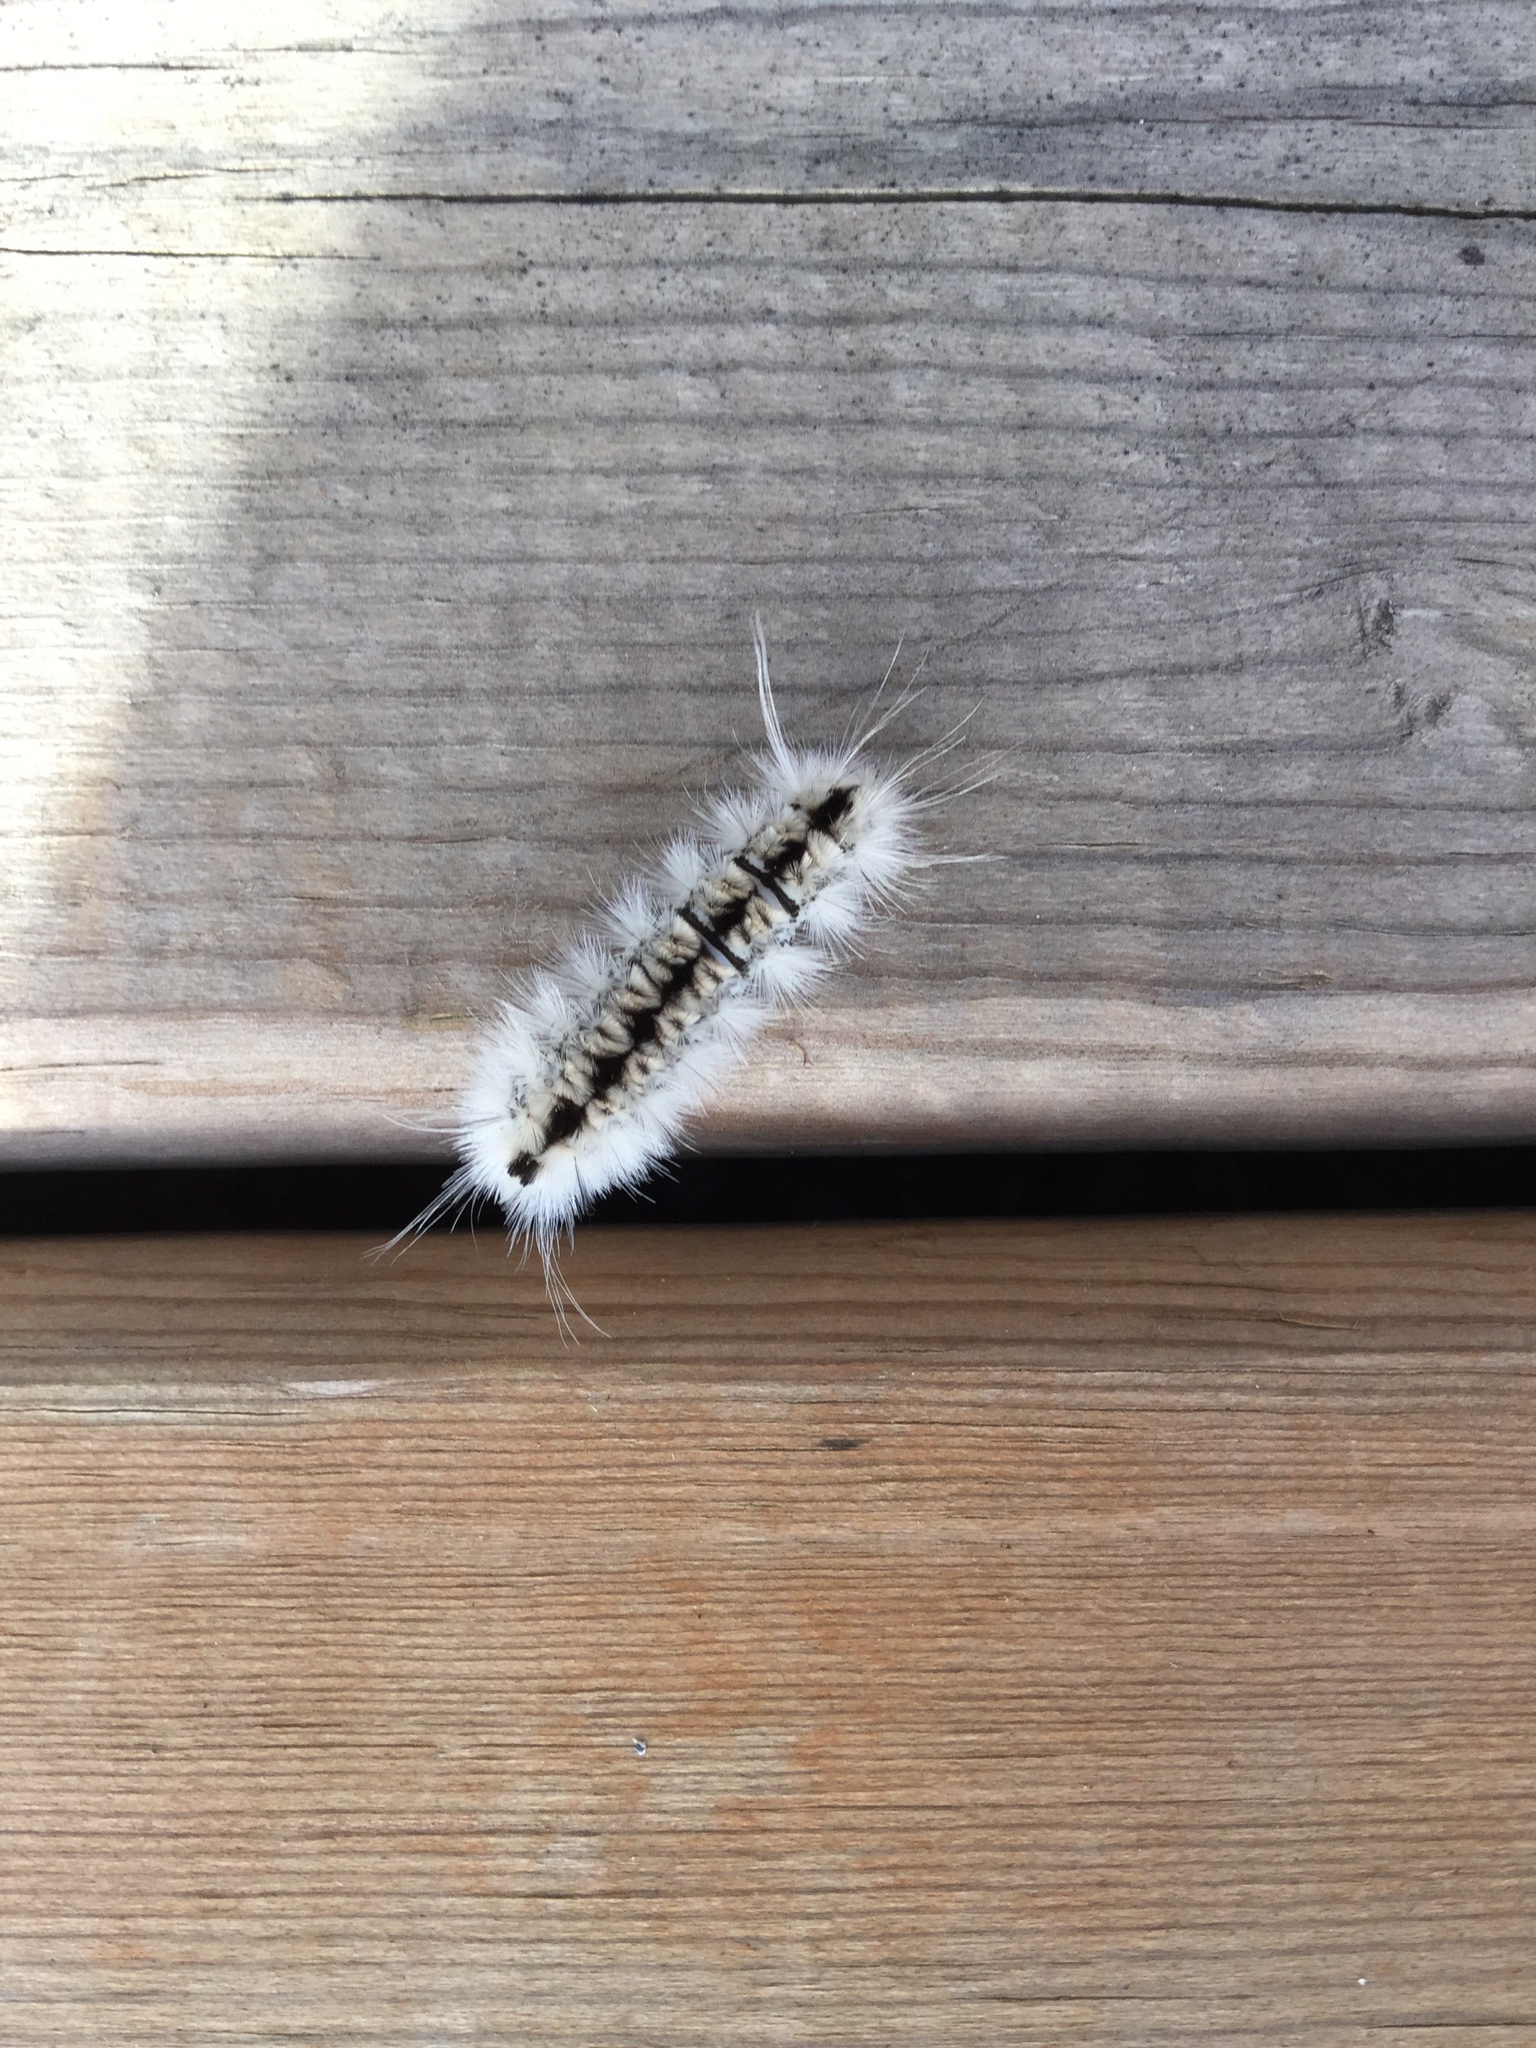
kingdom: Animalia
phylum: Arthropoda
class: Insecta
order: Lepidoptera
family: Erebidae
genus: Lophocampa
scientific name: Lophocampa caryae
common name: Hickory tussock moth
